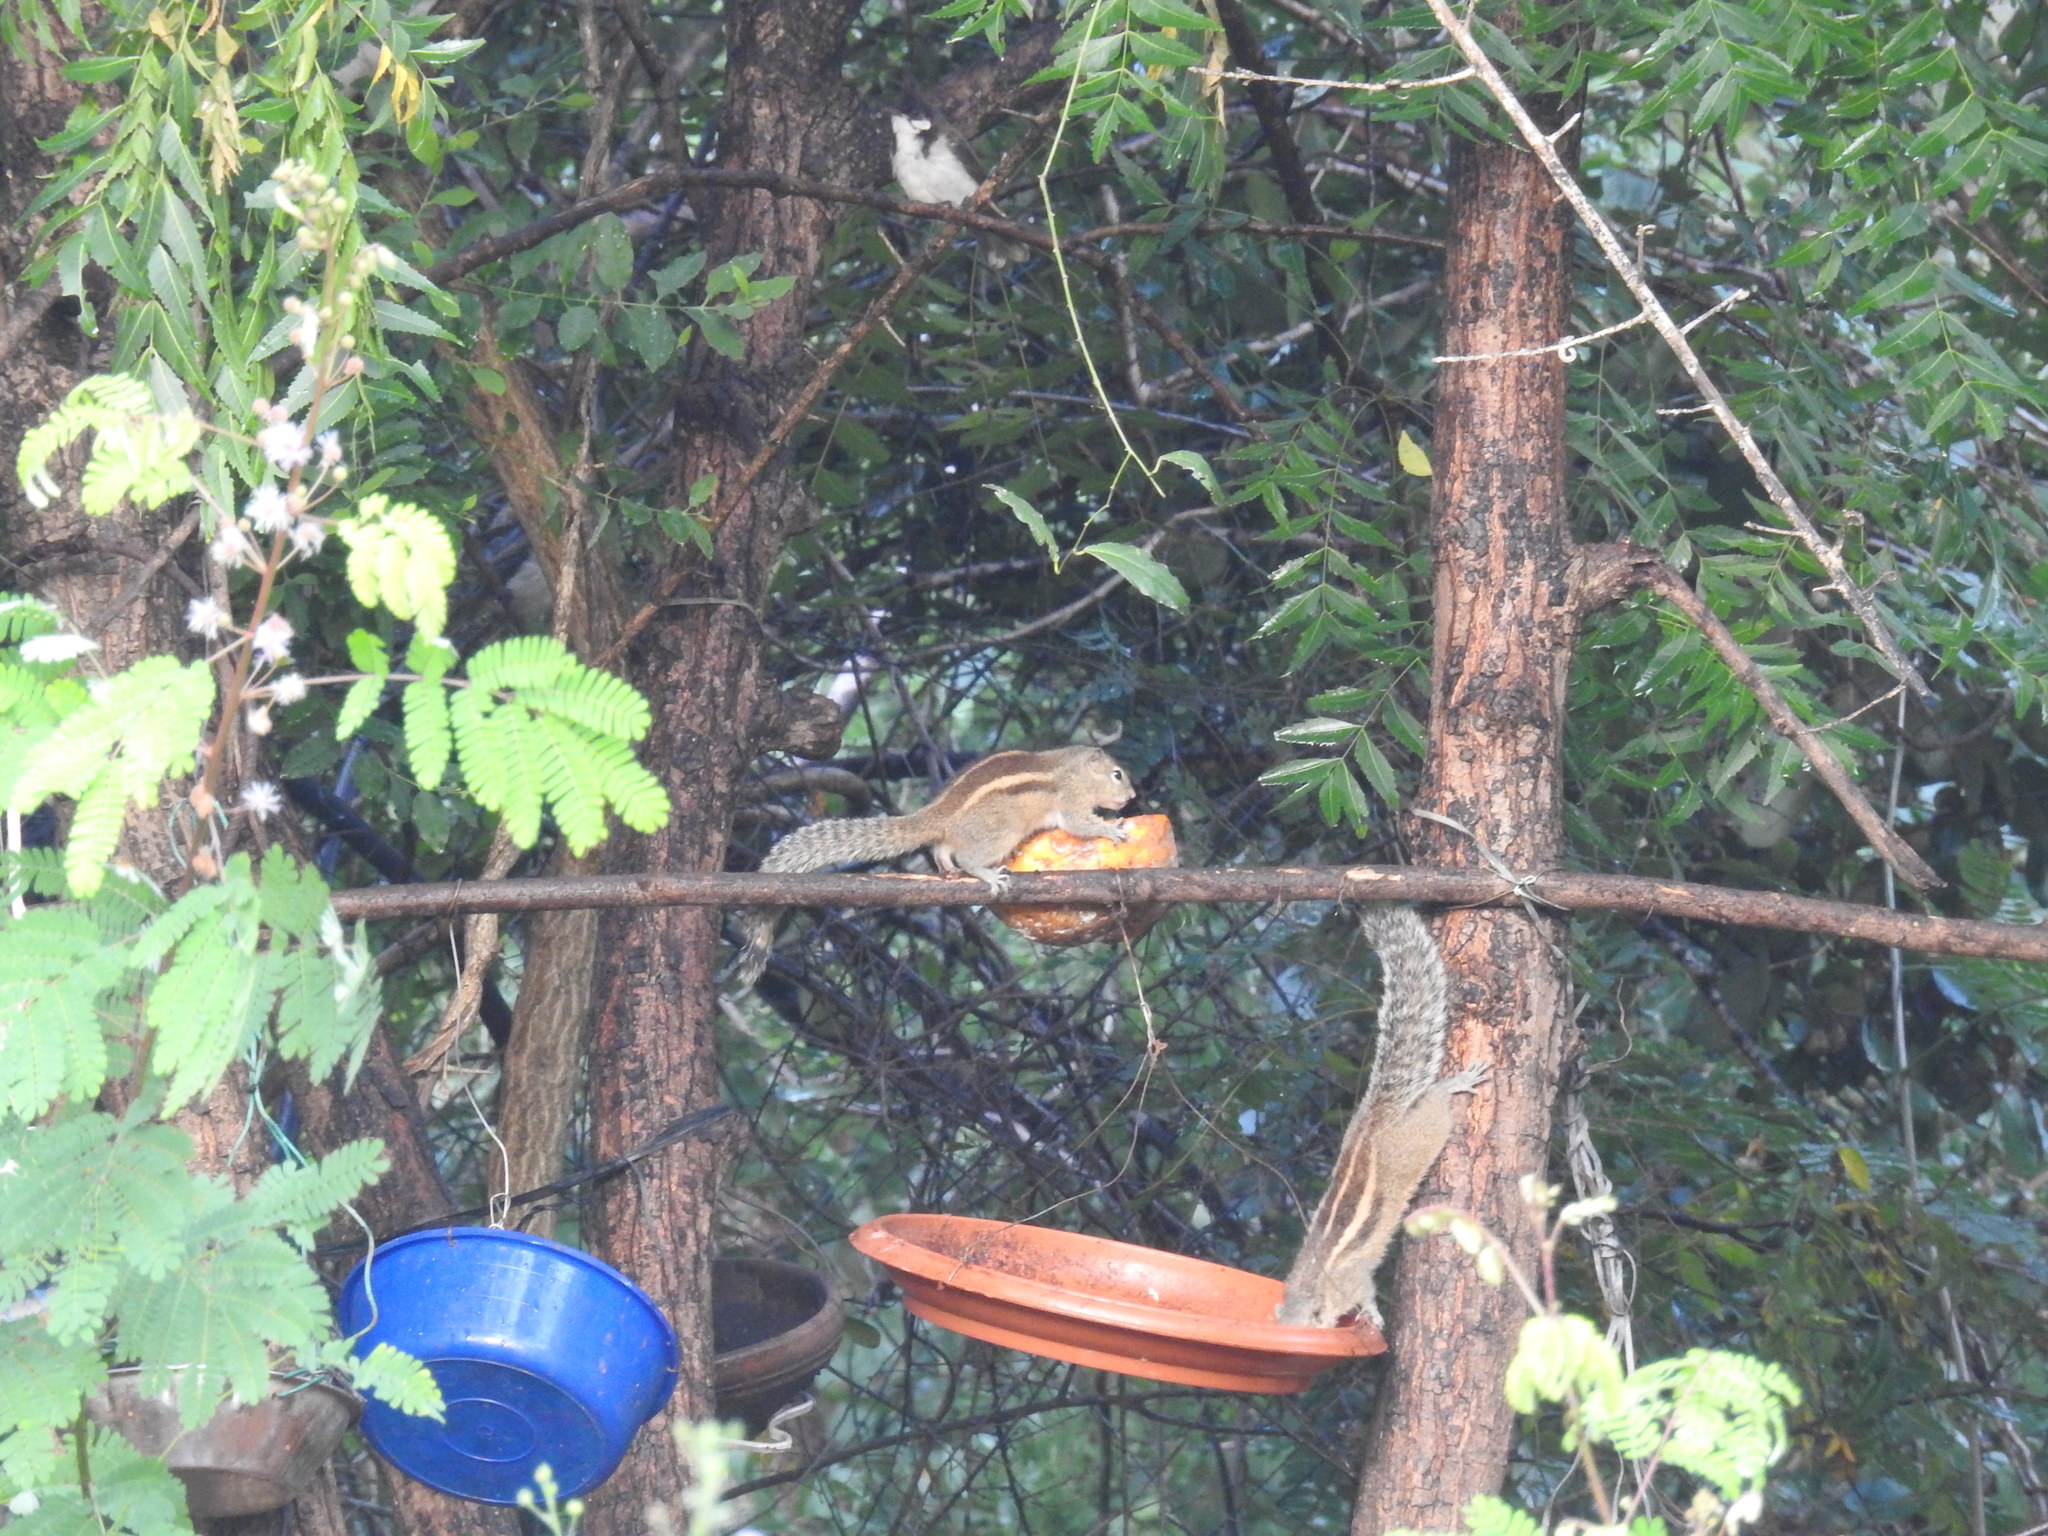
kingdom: Animalia
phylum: Chordata
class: Mammalia
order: Rodentia
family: Sciuridae
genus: Funambulus
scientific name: Funambulus palmarum
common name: Indian palm squirrel
